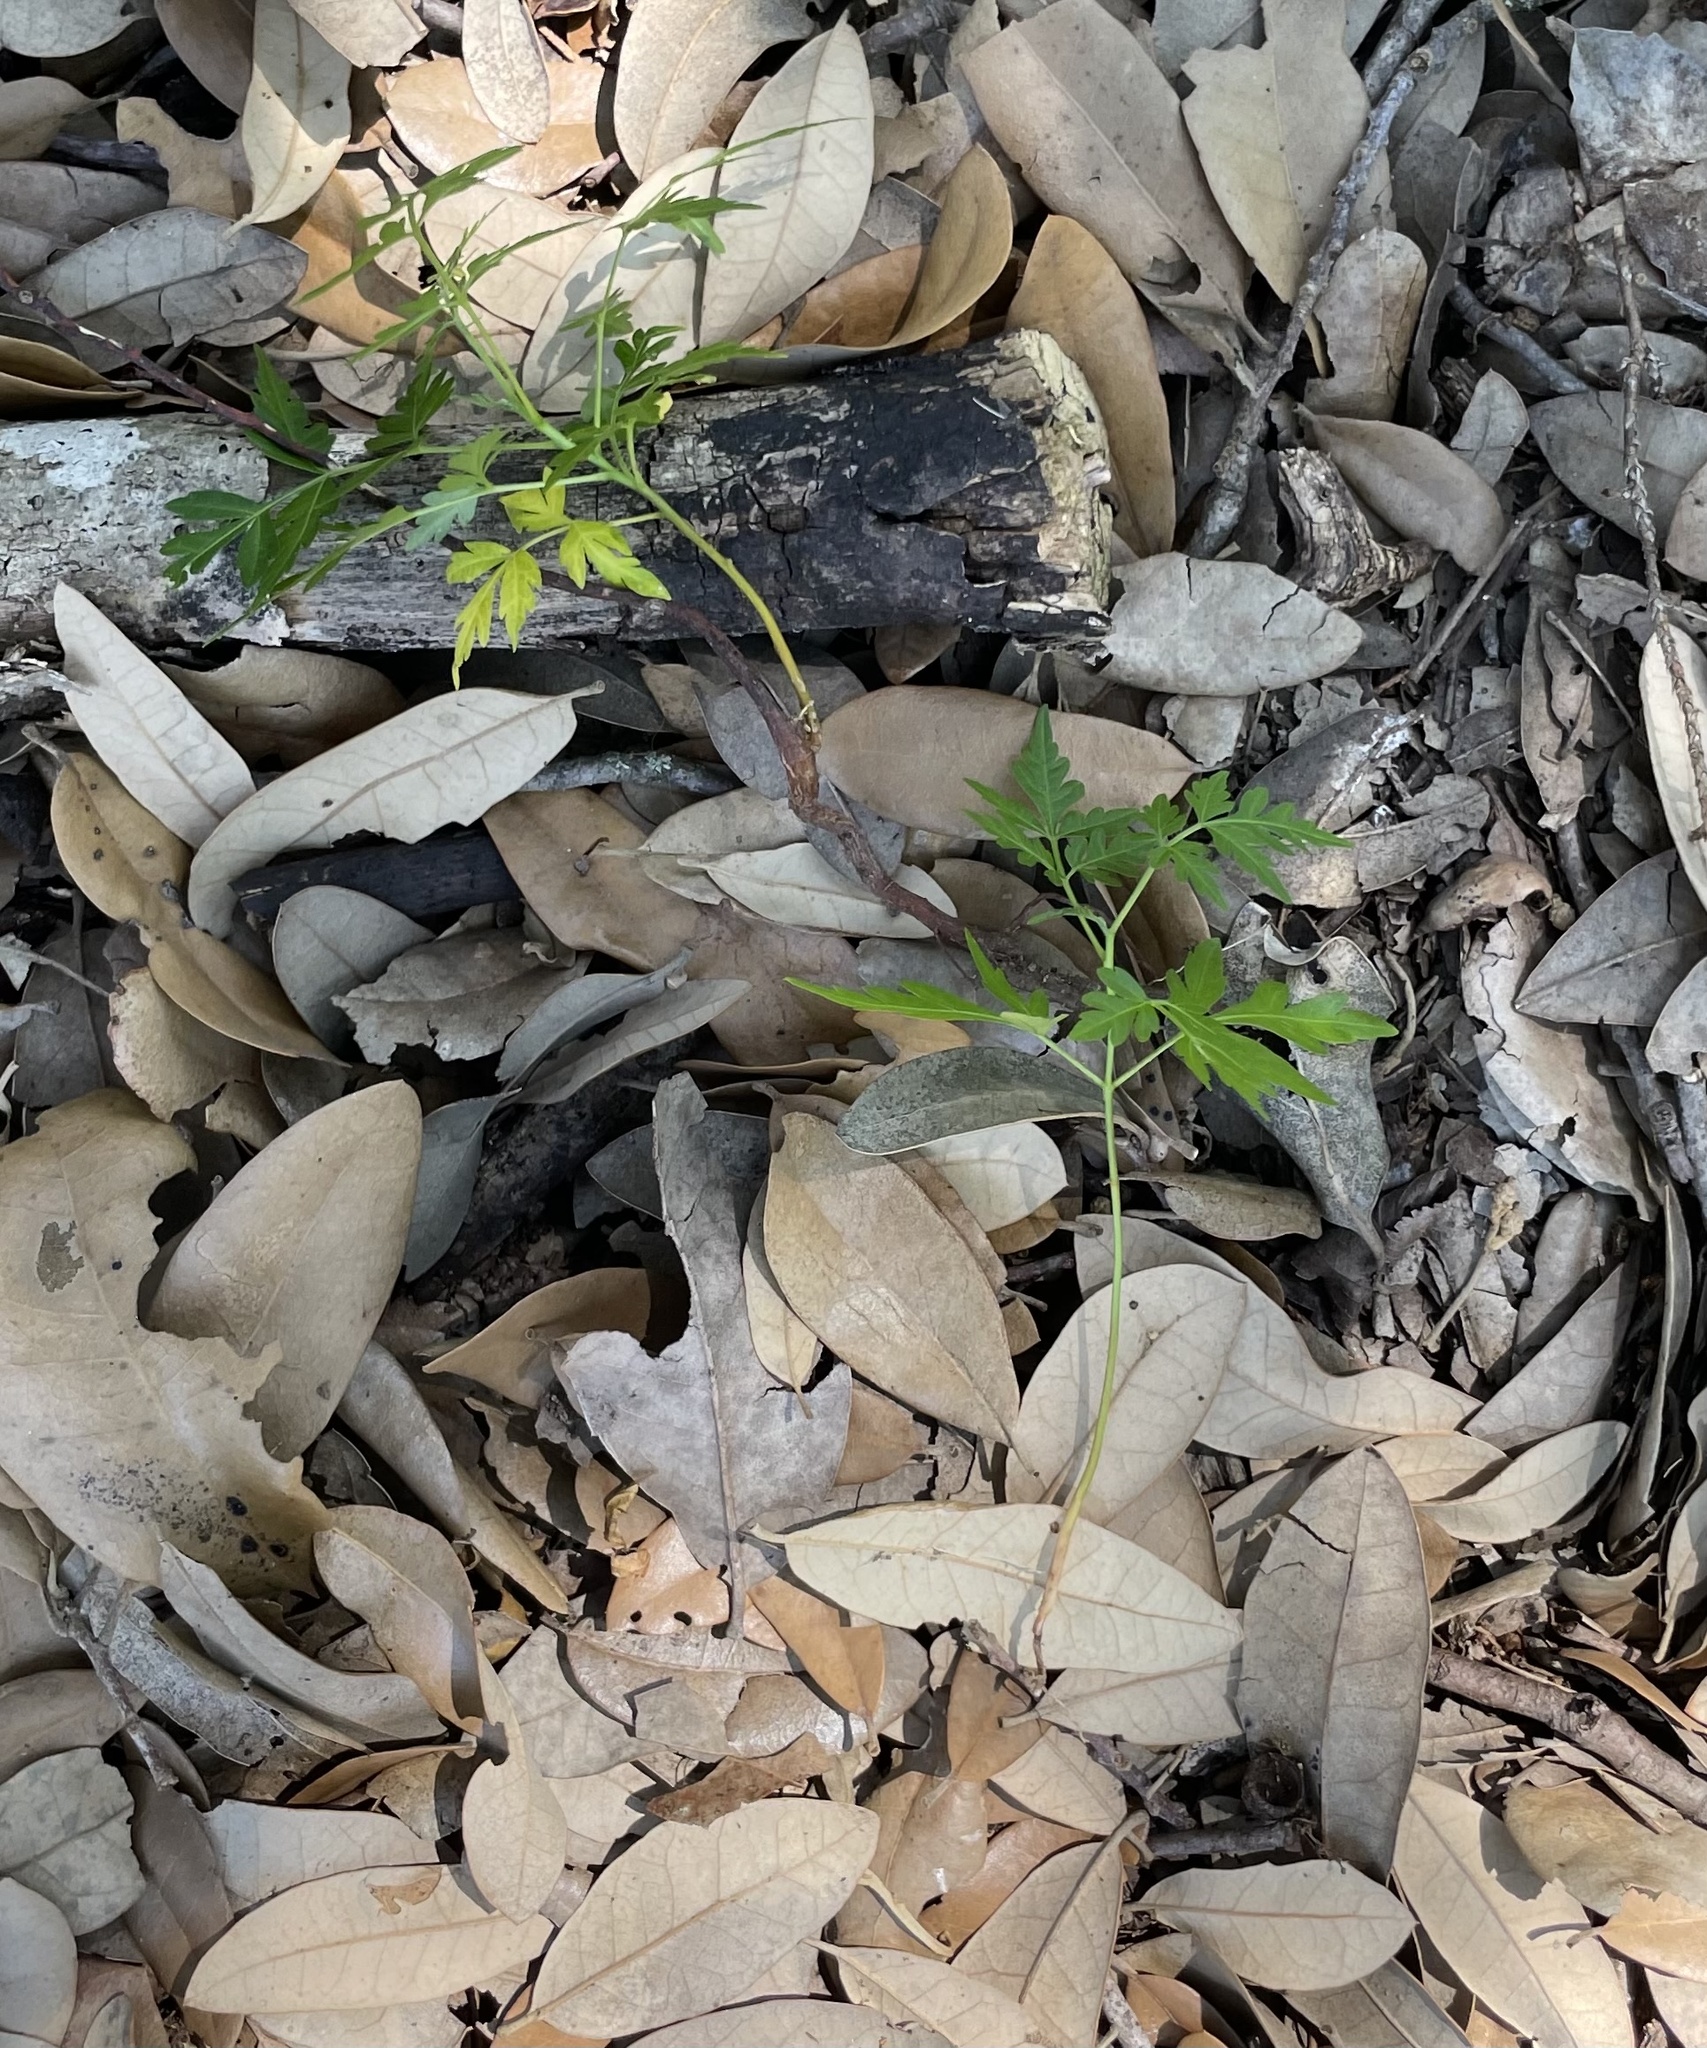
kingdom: Plantae
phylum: Tracheophyta
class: Magnoliopsida
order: Sapindales
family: Meliaceae
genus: Melia
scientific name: Melia azedarach
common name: Chinaberrytree
